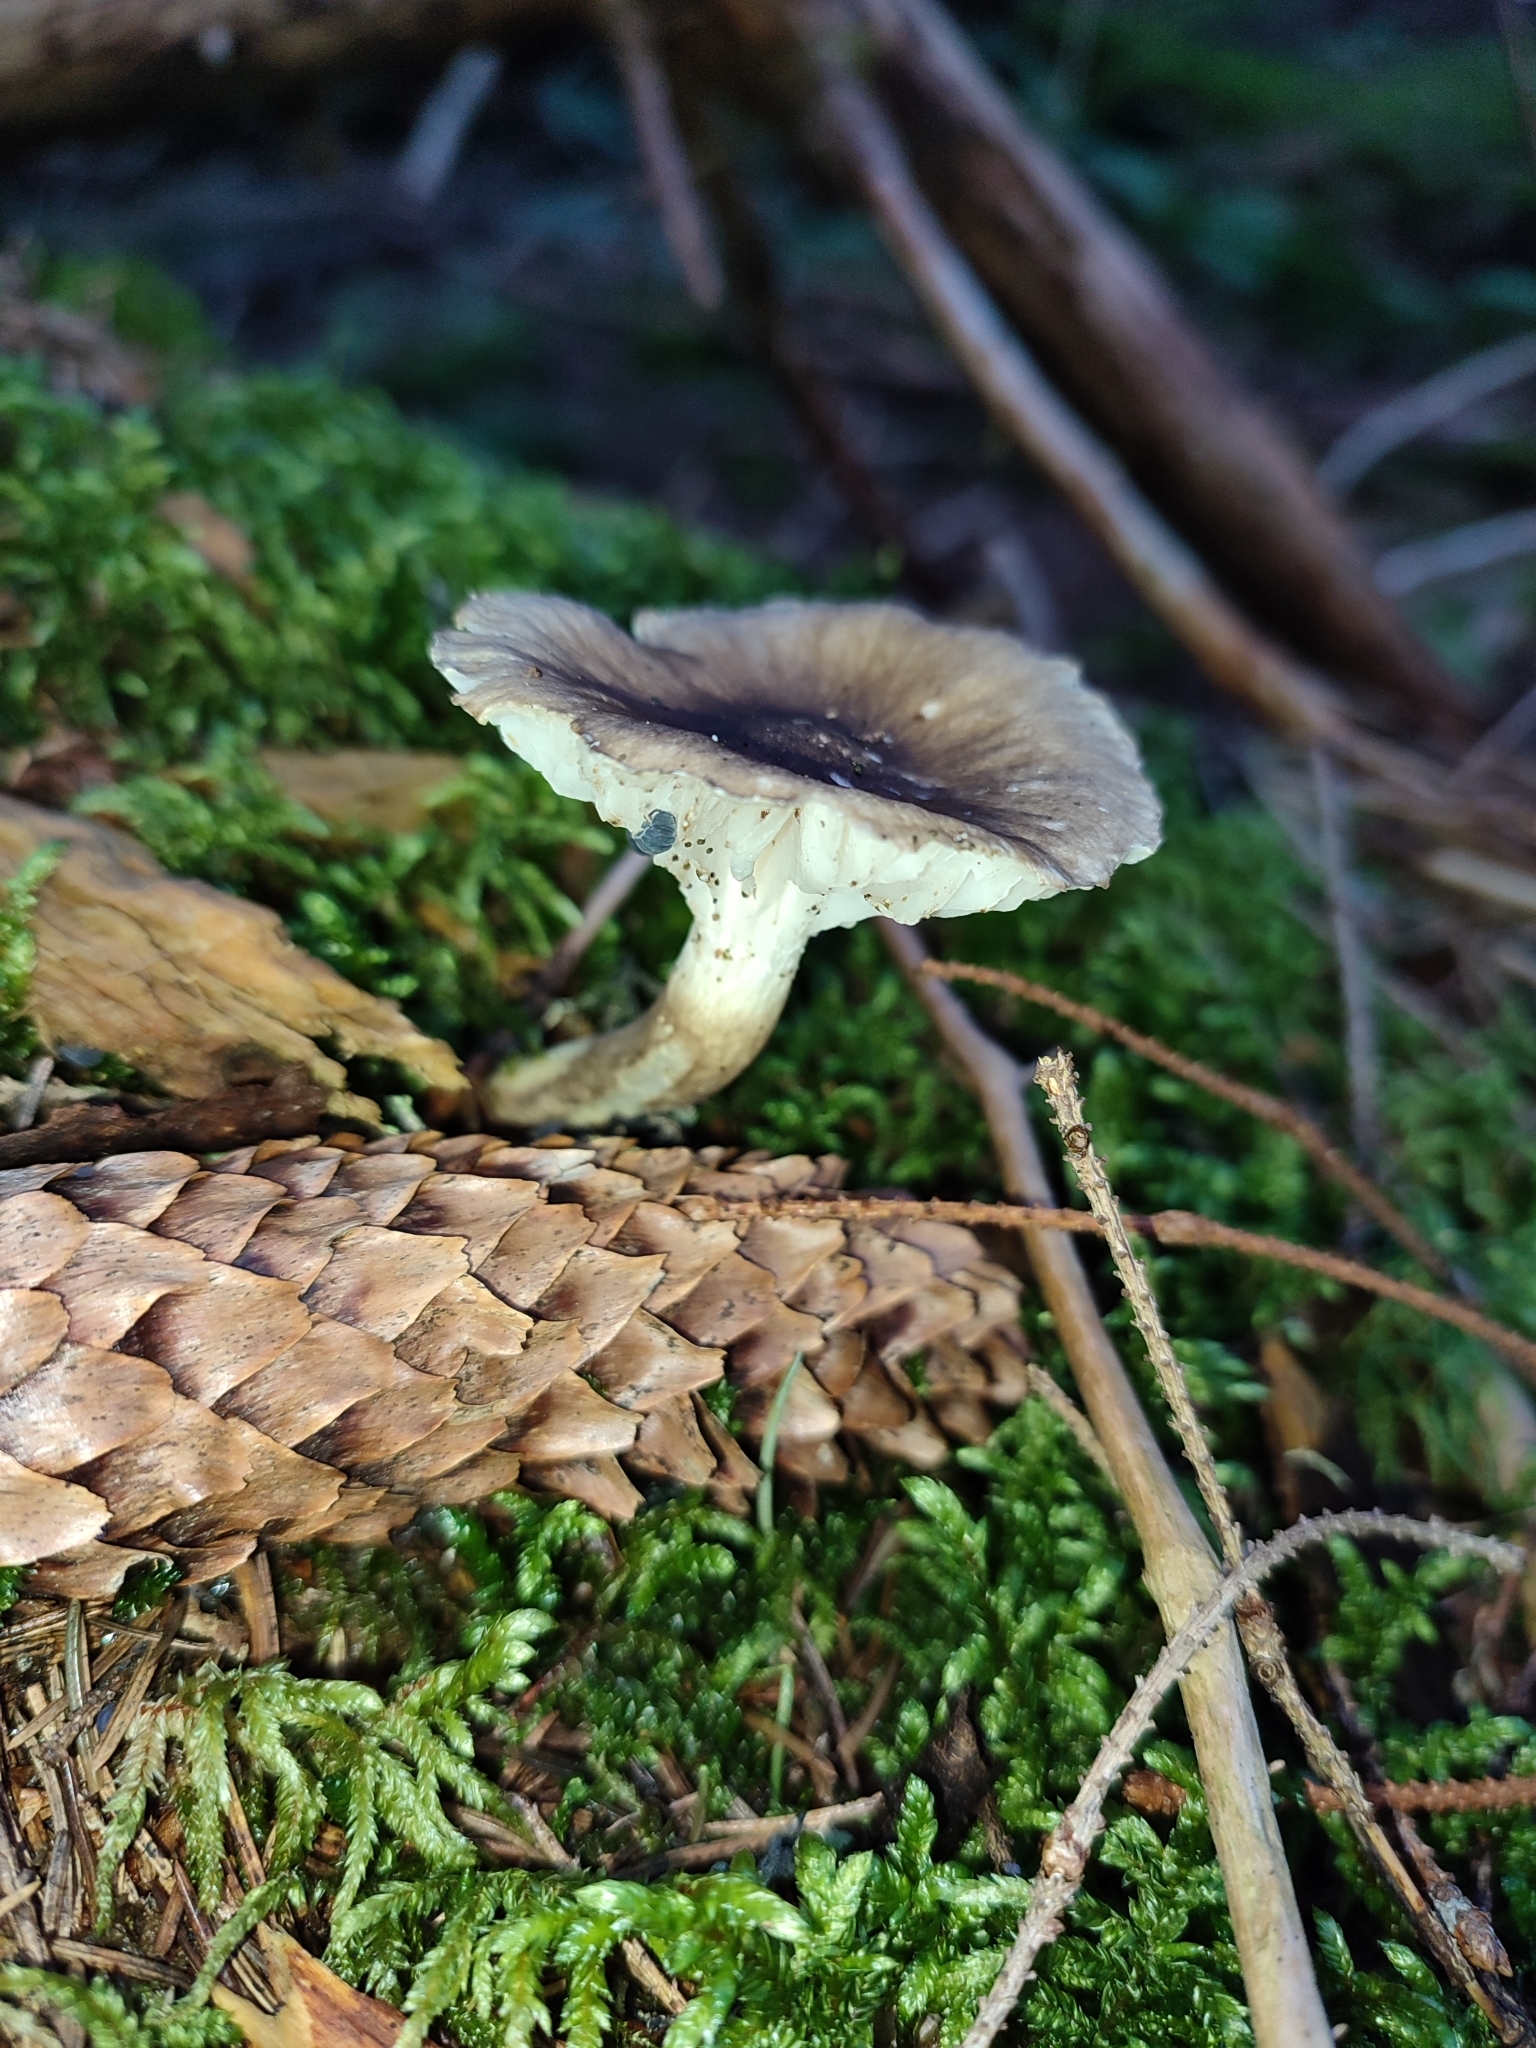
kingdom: Fungi
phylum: Basidiomycota
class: Agaricomycetes
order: Agaricales
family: Hygrophoraceae
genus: Hygrophorus
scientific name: Hygrophorus olivaceoalbus
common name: Olive wax cap
